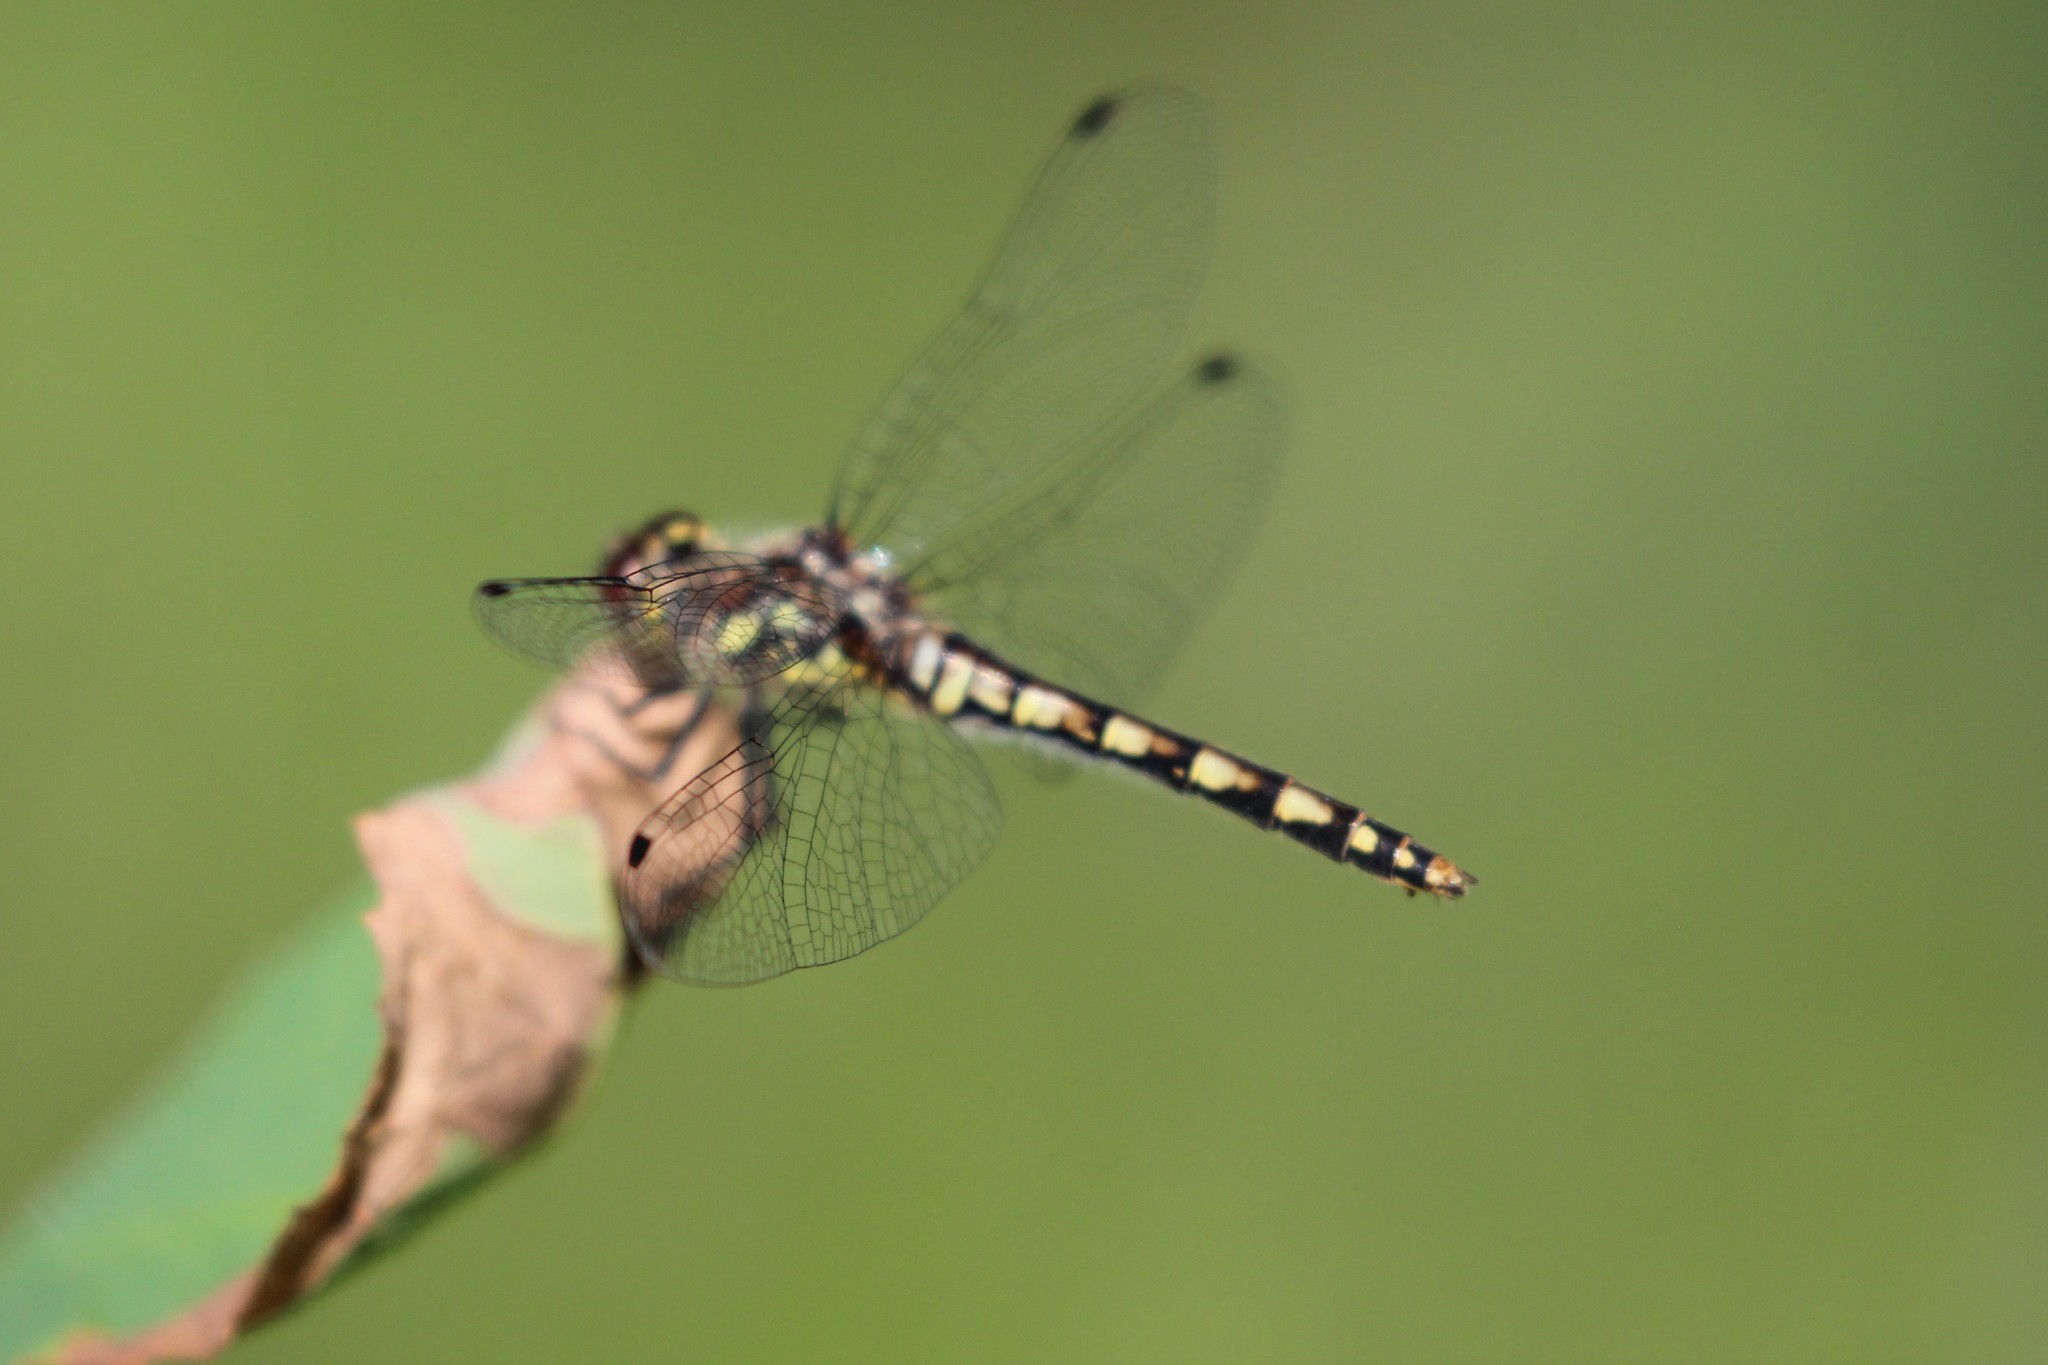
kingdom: Animalia
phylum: Arthropoda
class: Insecta
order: Odonata
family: Libellulidae
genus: Sympetrum
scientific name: Sympetrum danae
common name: Black darter
